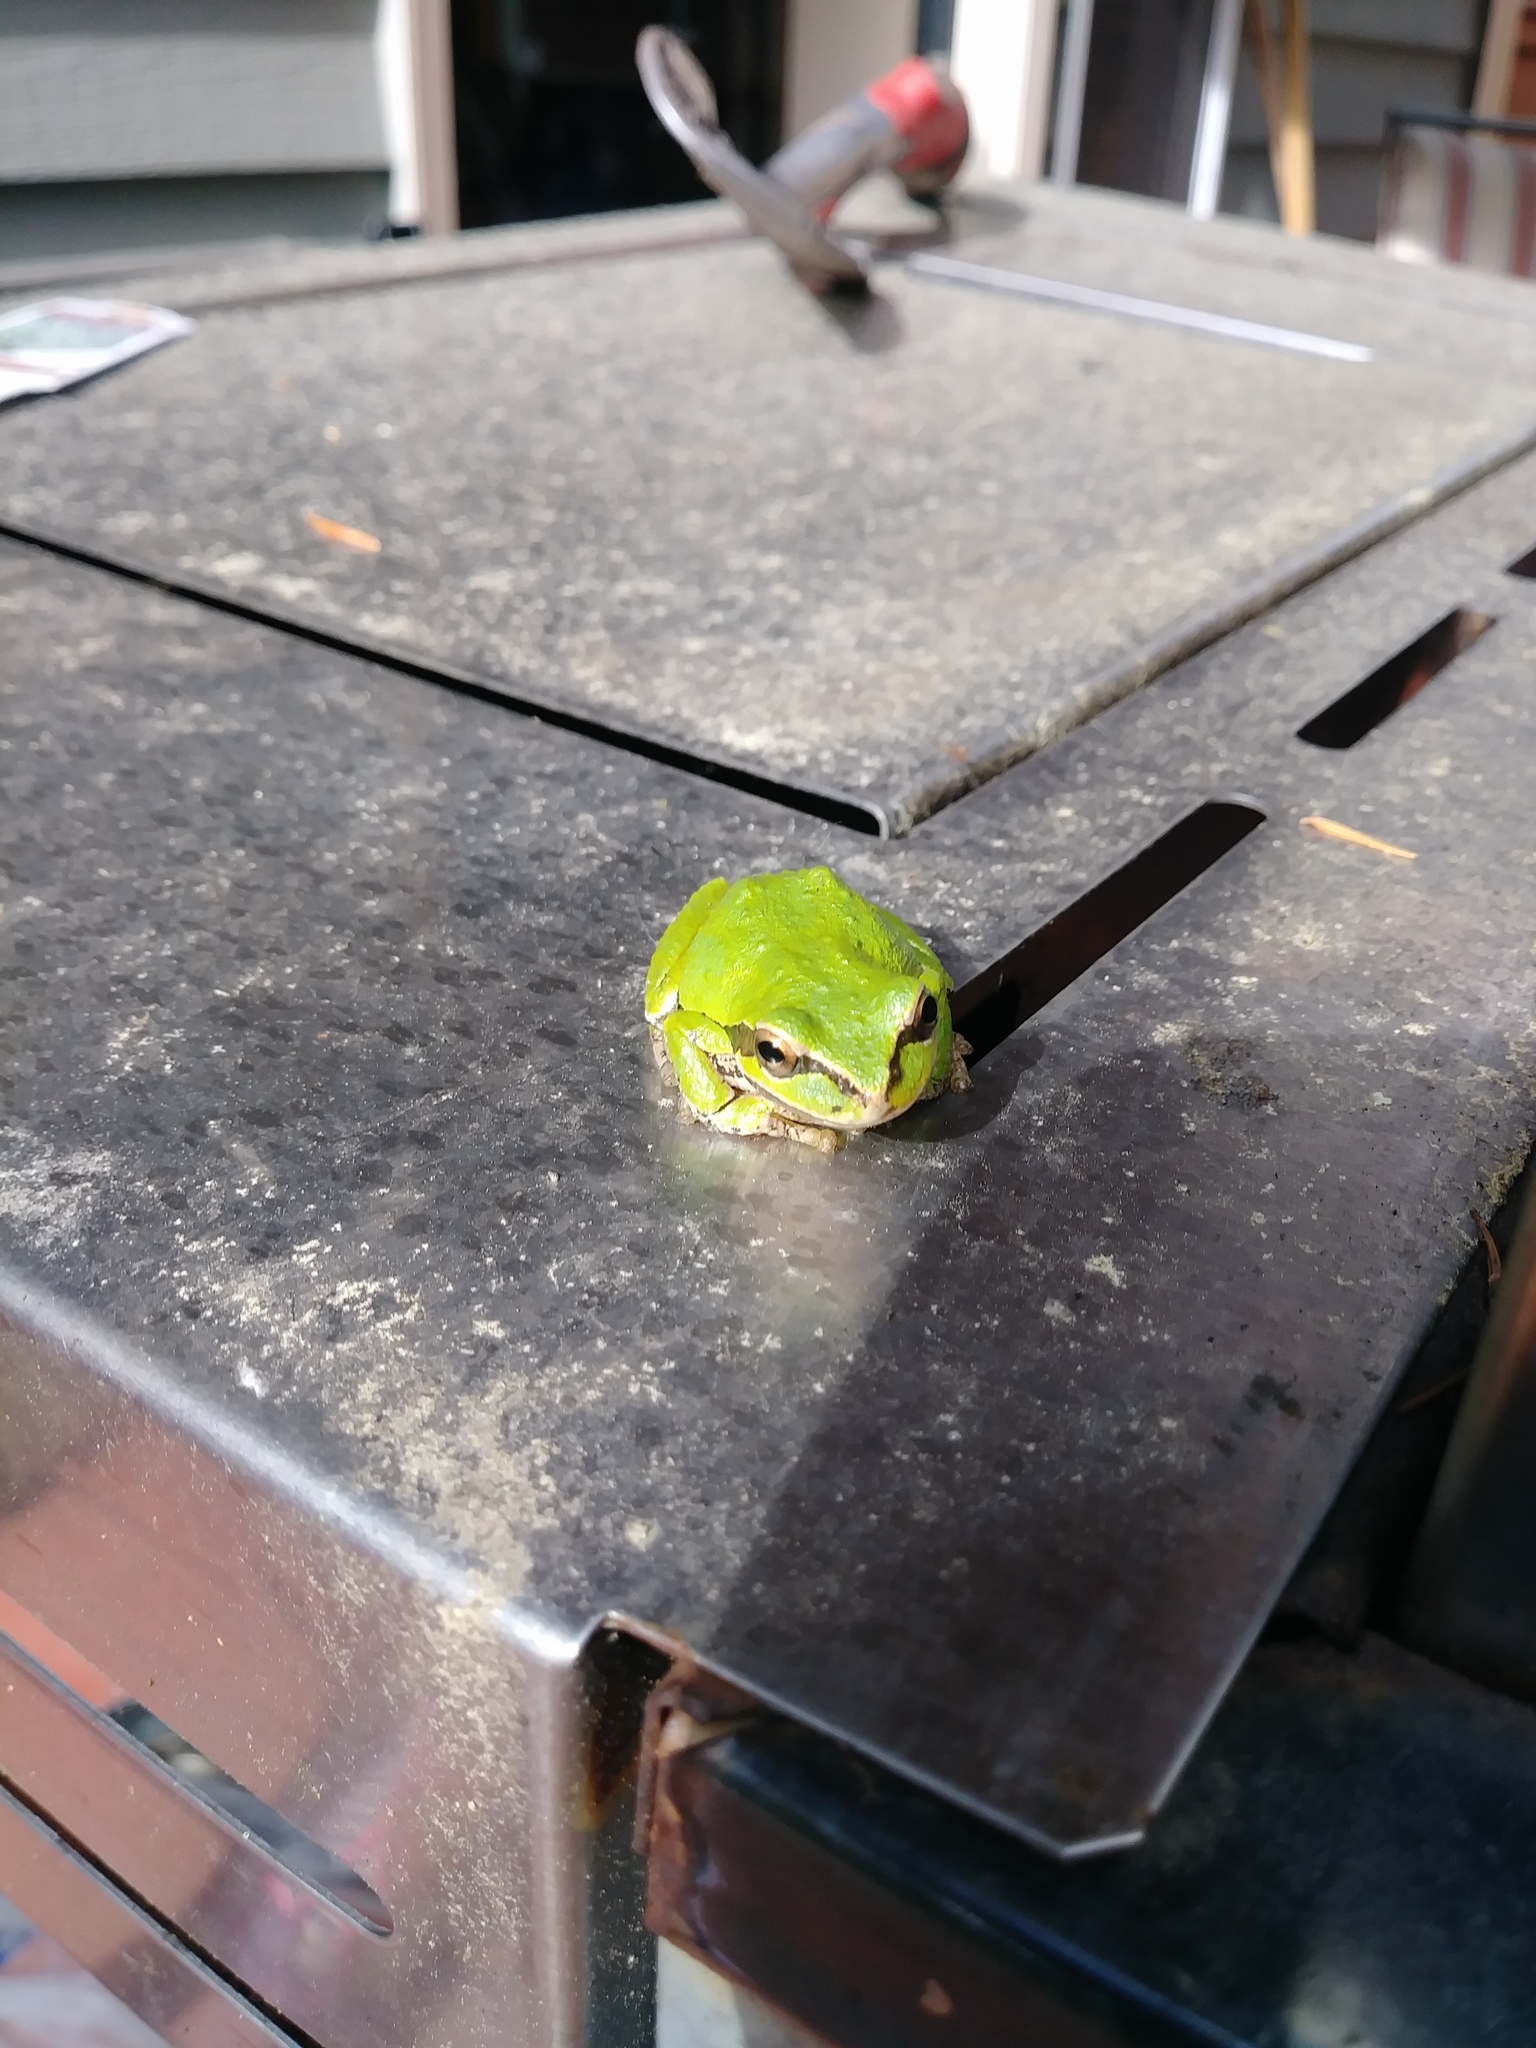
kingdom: Animalia
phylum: Chordata
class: Amphibia
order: Anura
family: Hylidae
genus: Pseudacris
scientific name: Pseudacris regilla
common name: Pacific chorus frog
